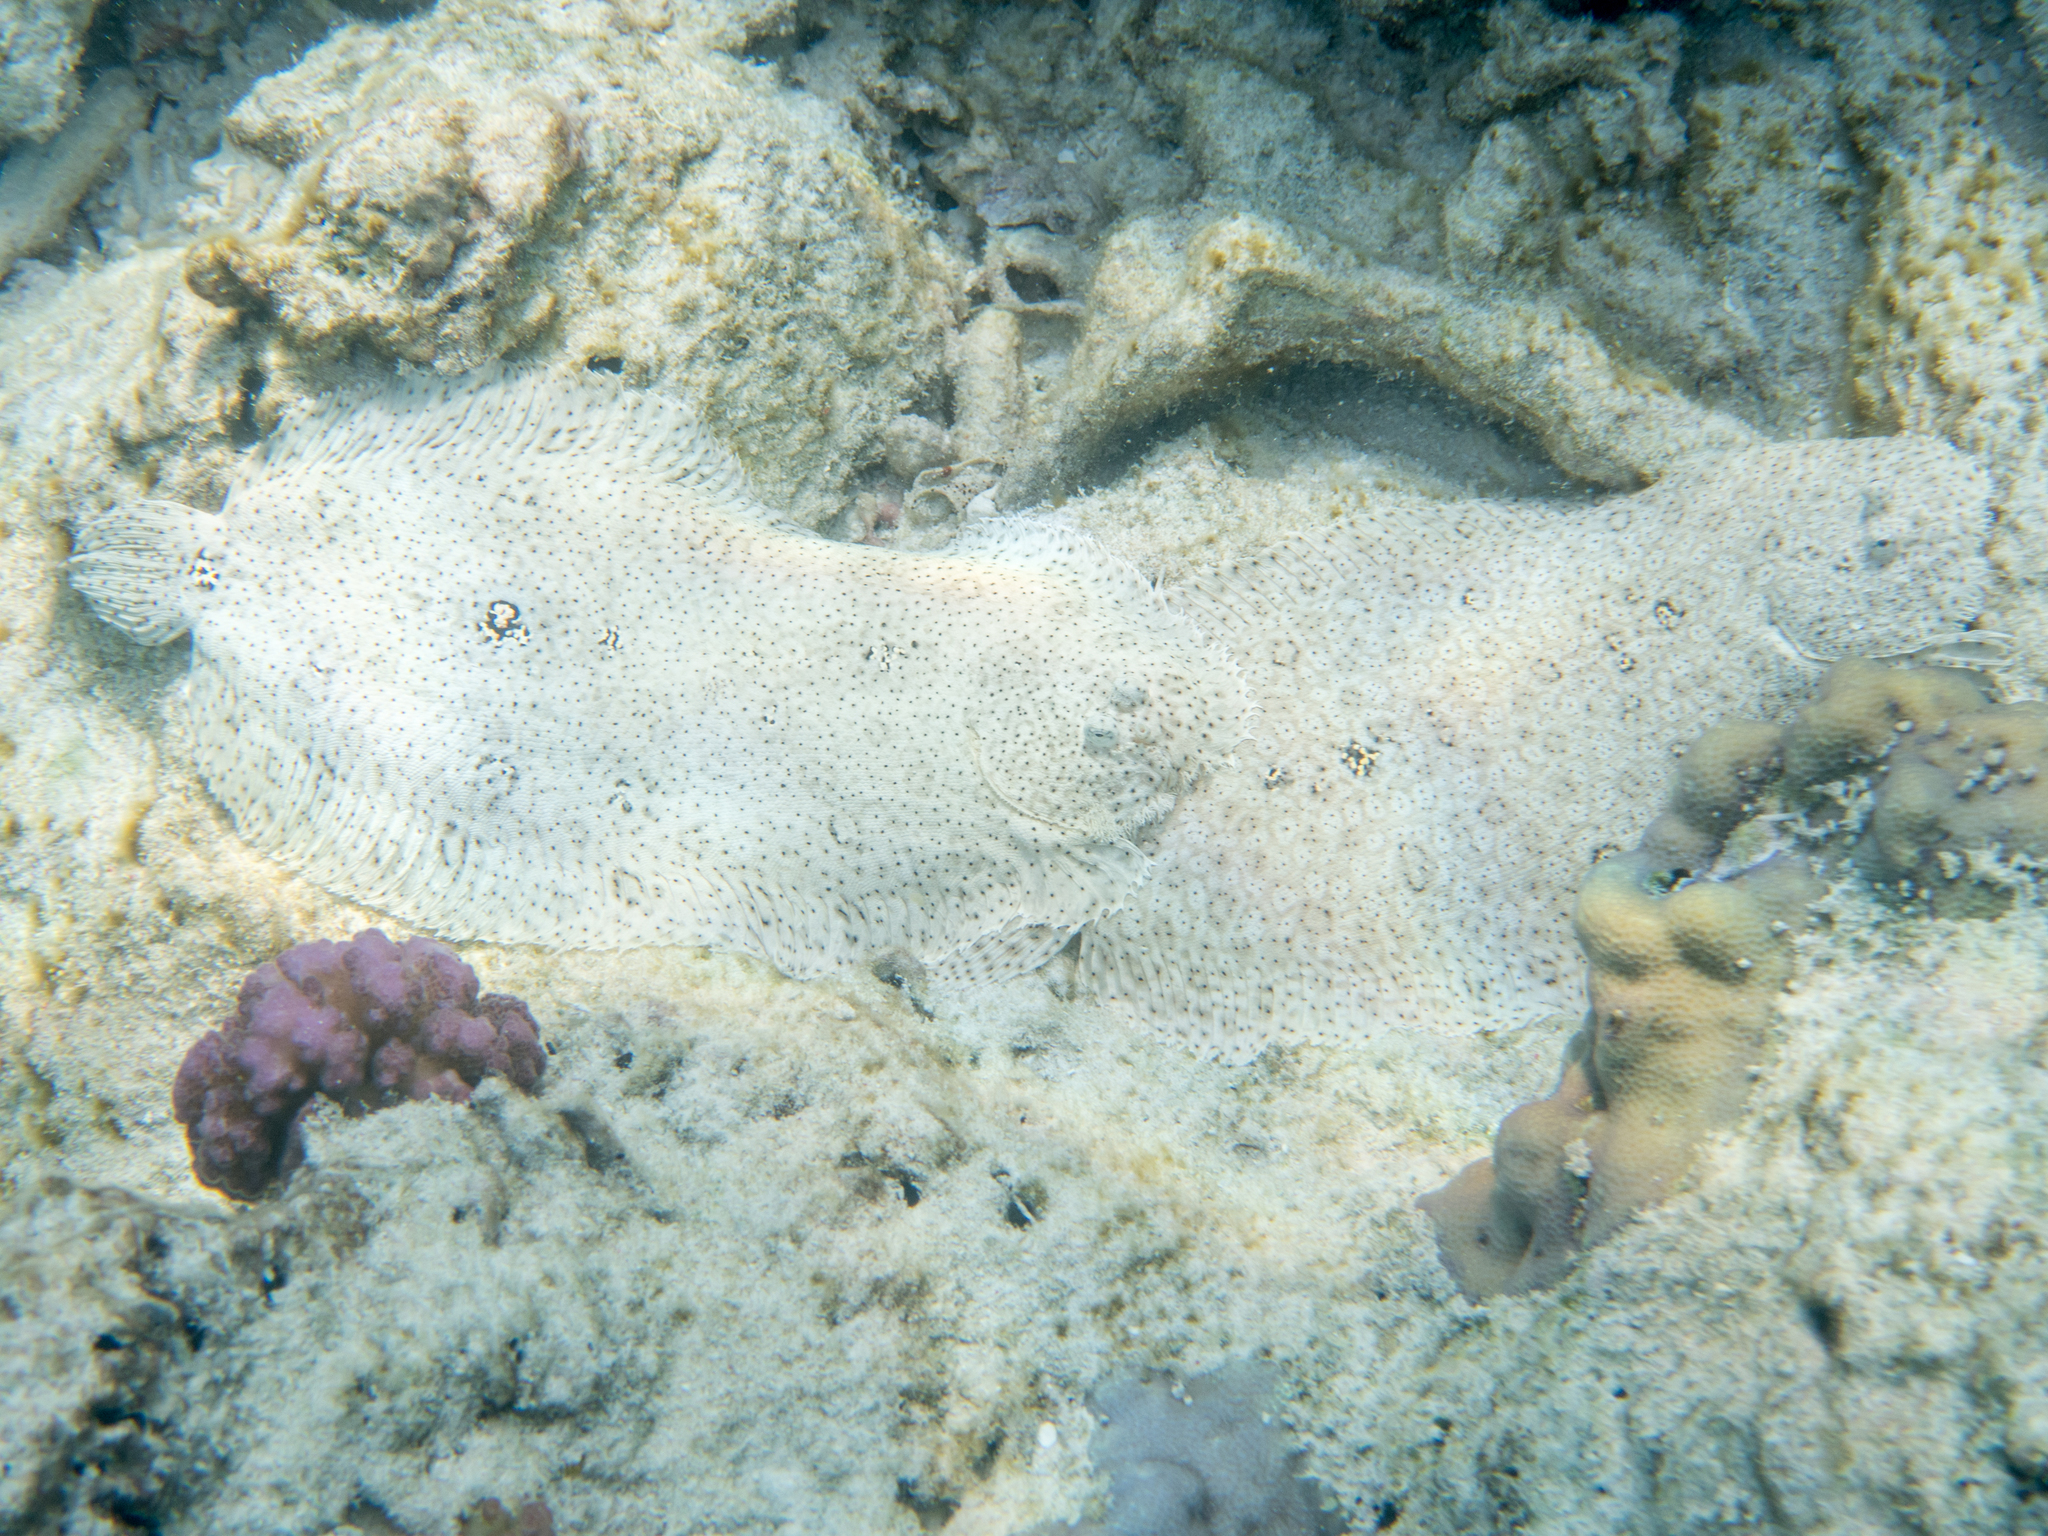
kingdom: Animalia
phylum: Chordata
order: Pleuronectiformes
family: Soleidae
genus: Pardachirus
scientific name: Pardachirus marmoratus
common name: Finless sole
